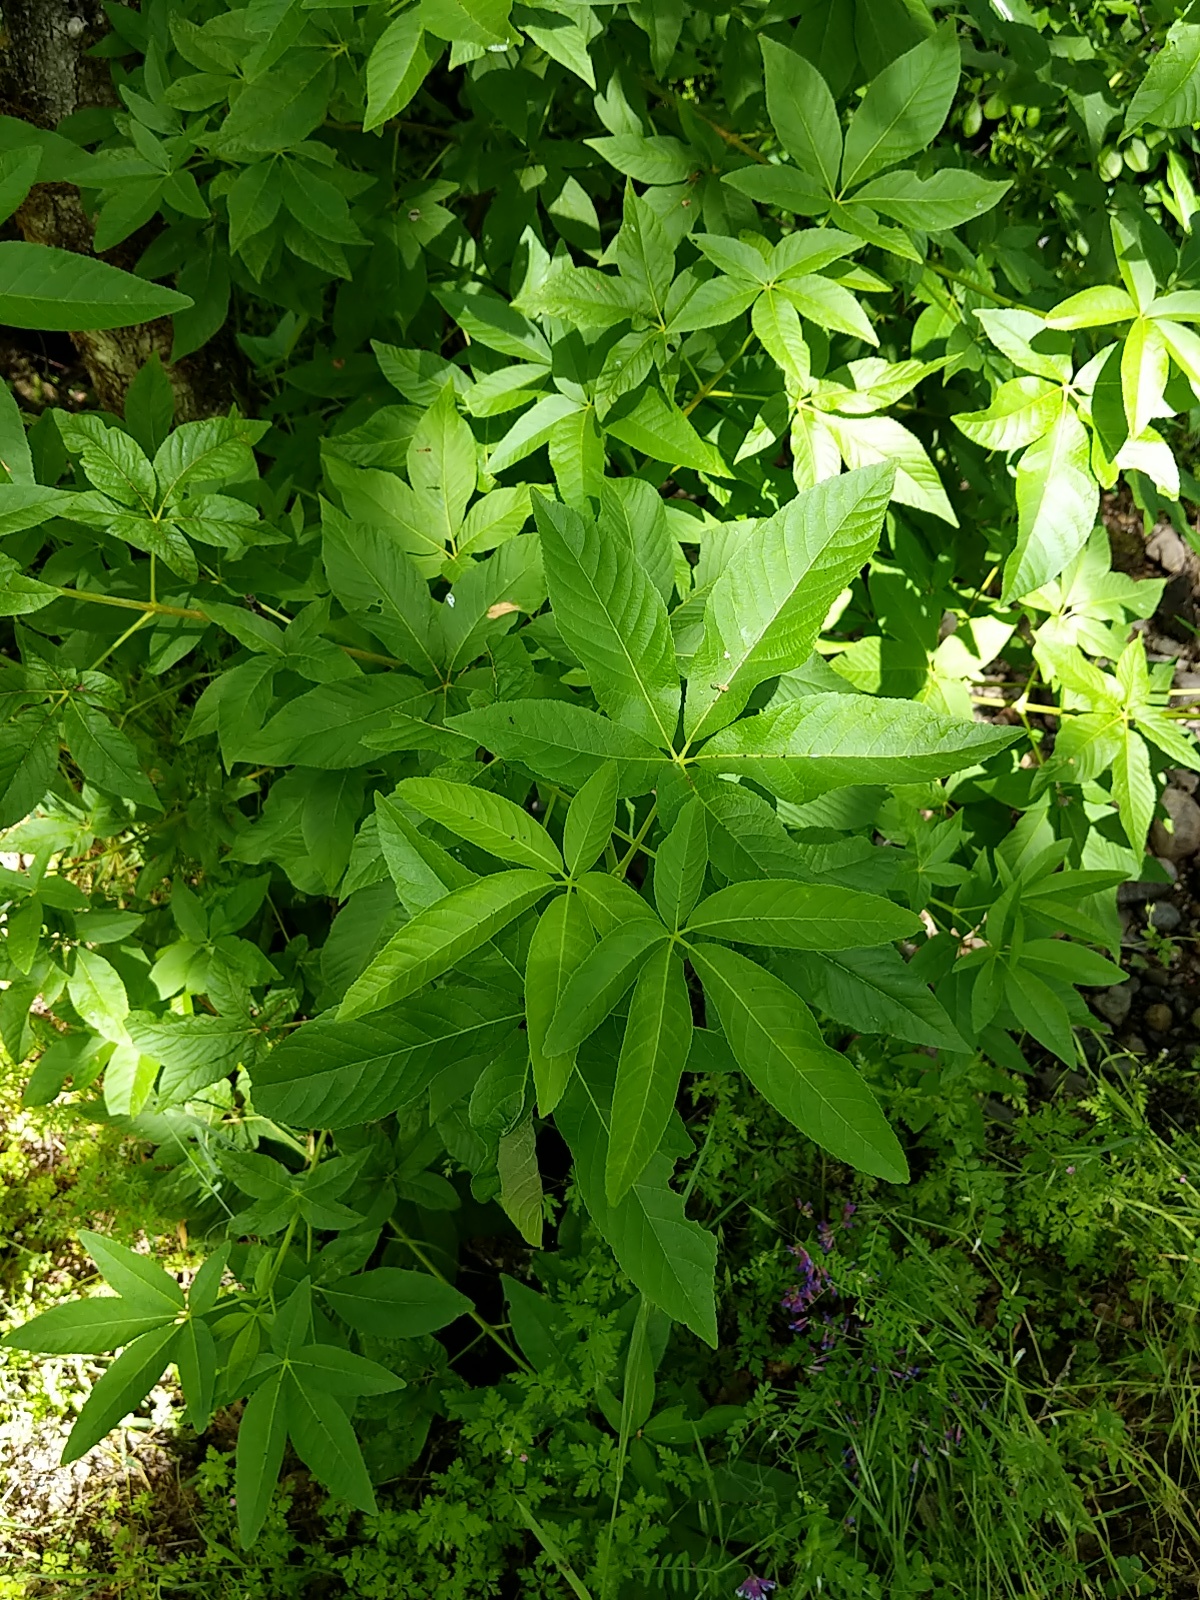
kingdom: Plantae
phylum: Tracheophyta
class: Magnoliopsida
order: Sapindales
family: Sapindaceae
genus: Aesculus
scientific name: Aesculus californica
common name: California buckeye
